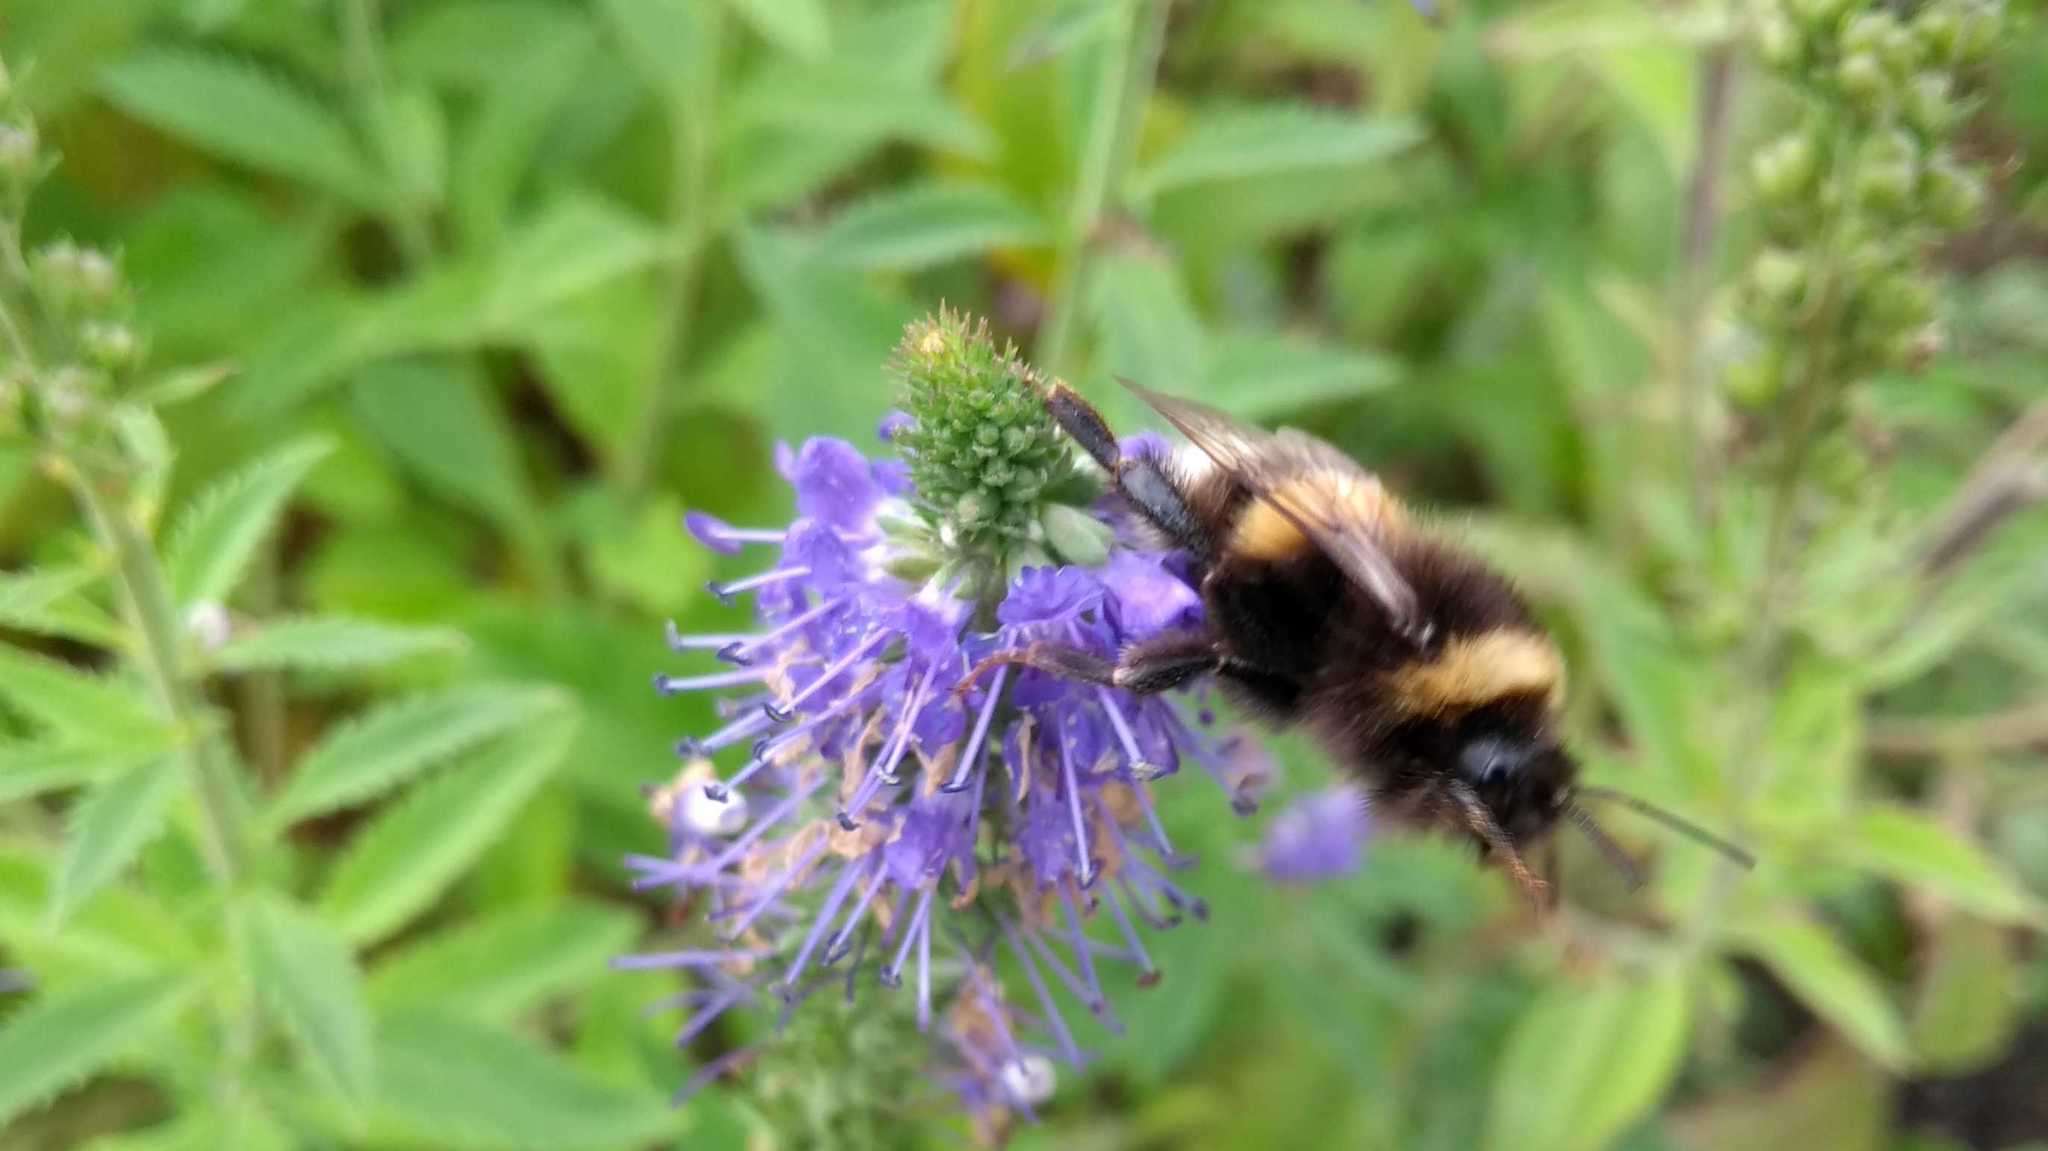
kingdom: Animalia
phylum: Arthropoda
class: Insecta
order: Hymenoptera
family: Apidae
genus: Bombus
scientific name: Bombus
